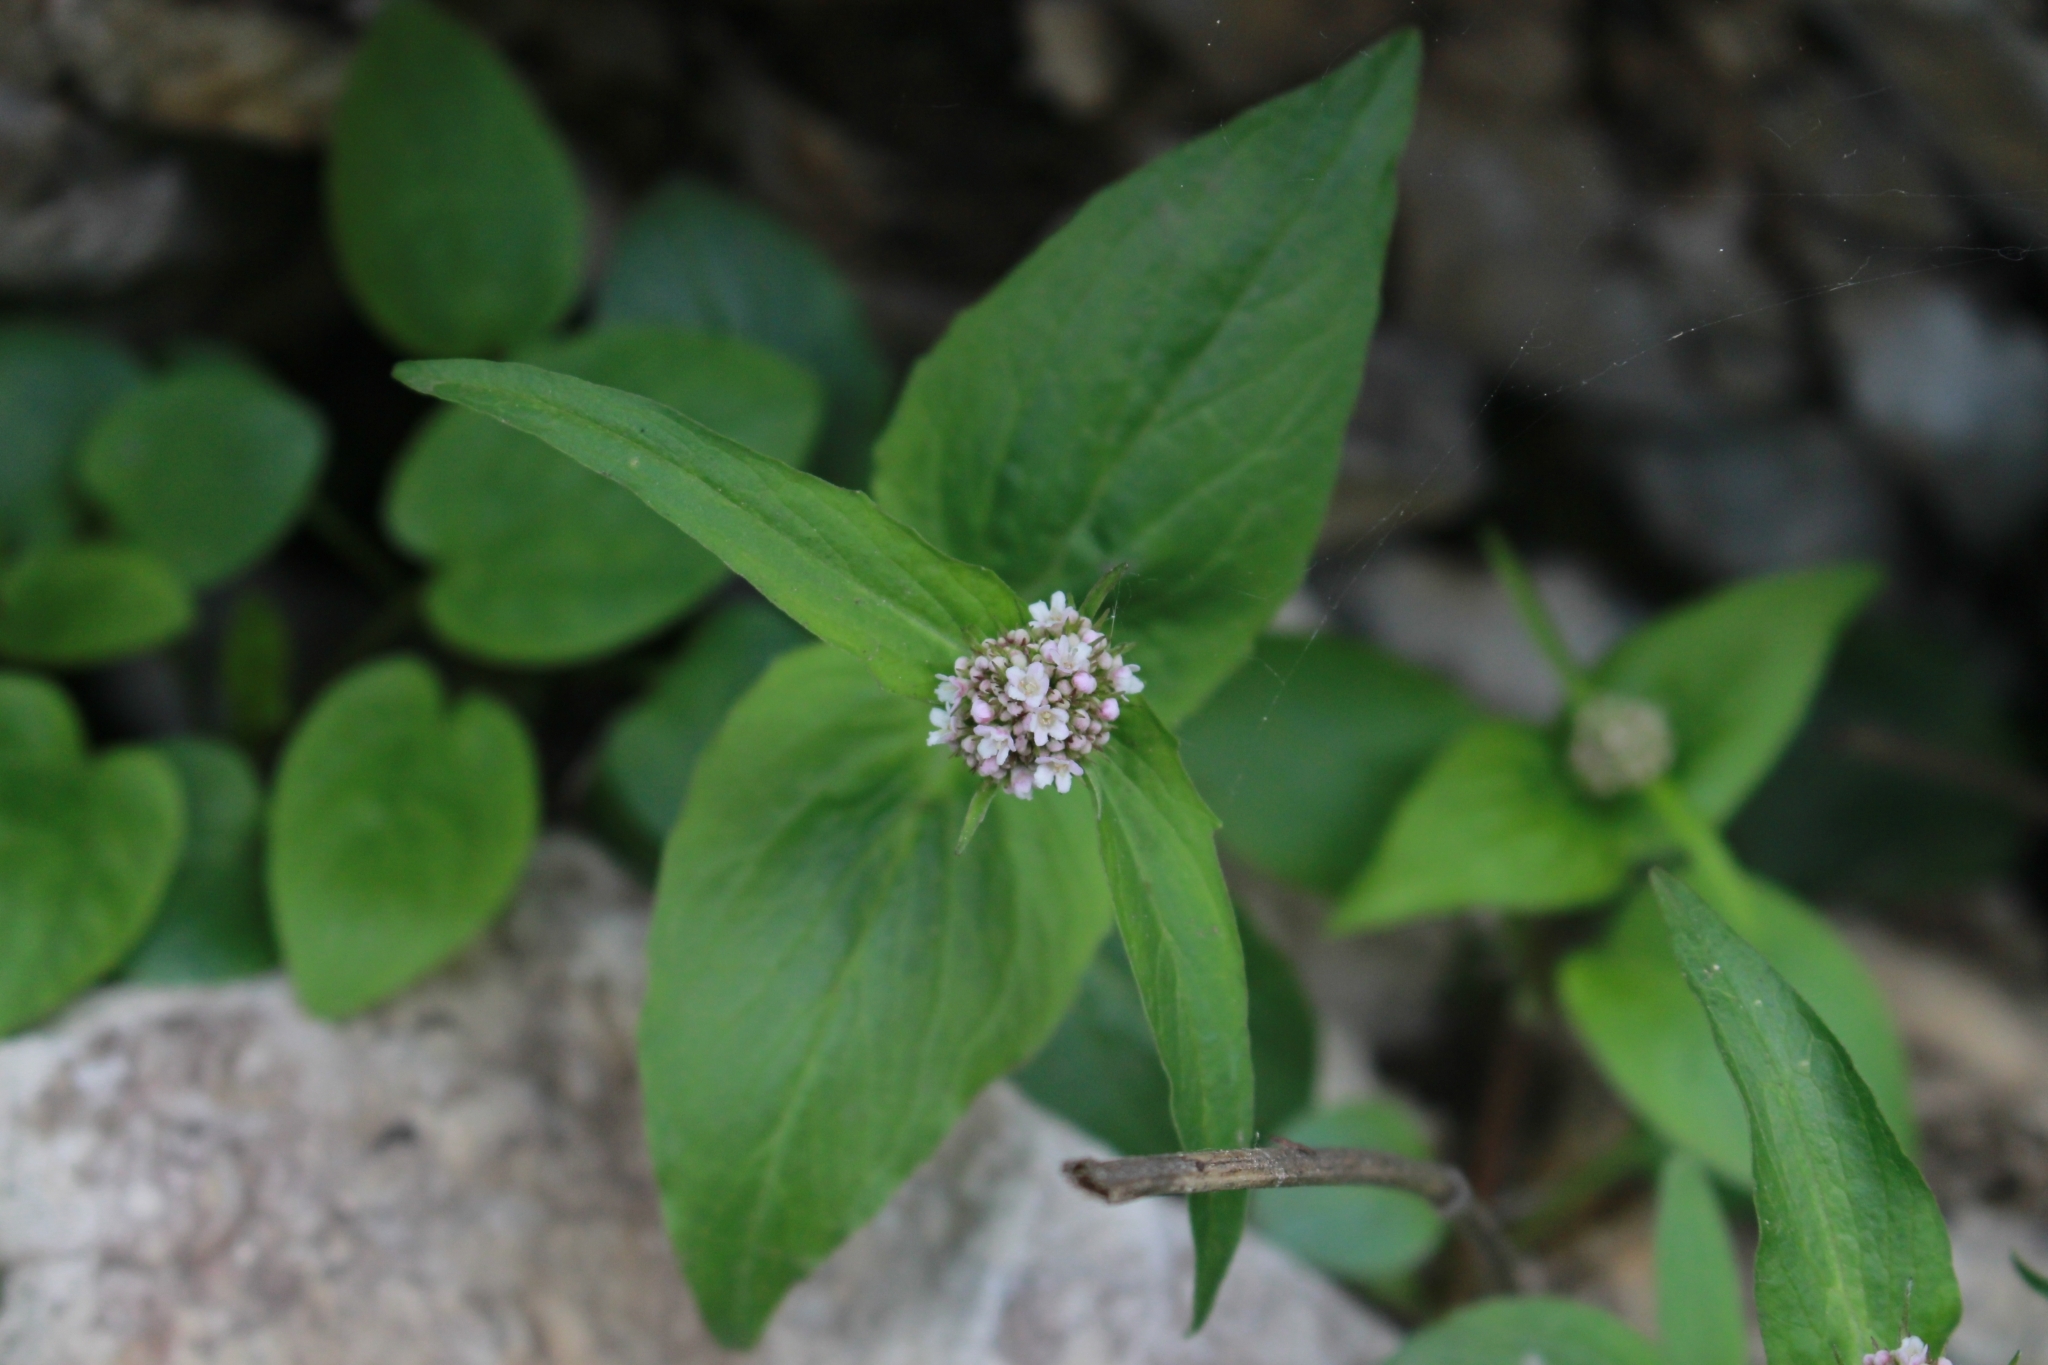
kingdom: Plantae
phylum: Tracheophyta
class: Magnoliopsida
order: Dipsacales
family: Caprifoliaceae
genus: Valeriana
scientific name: Valeriana montana
